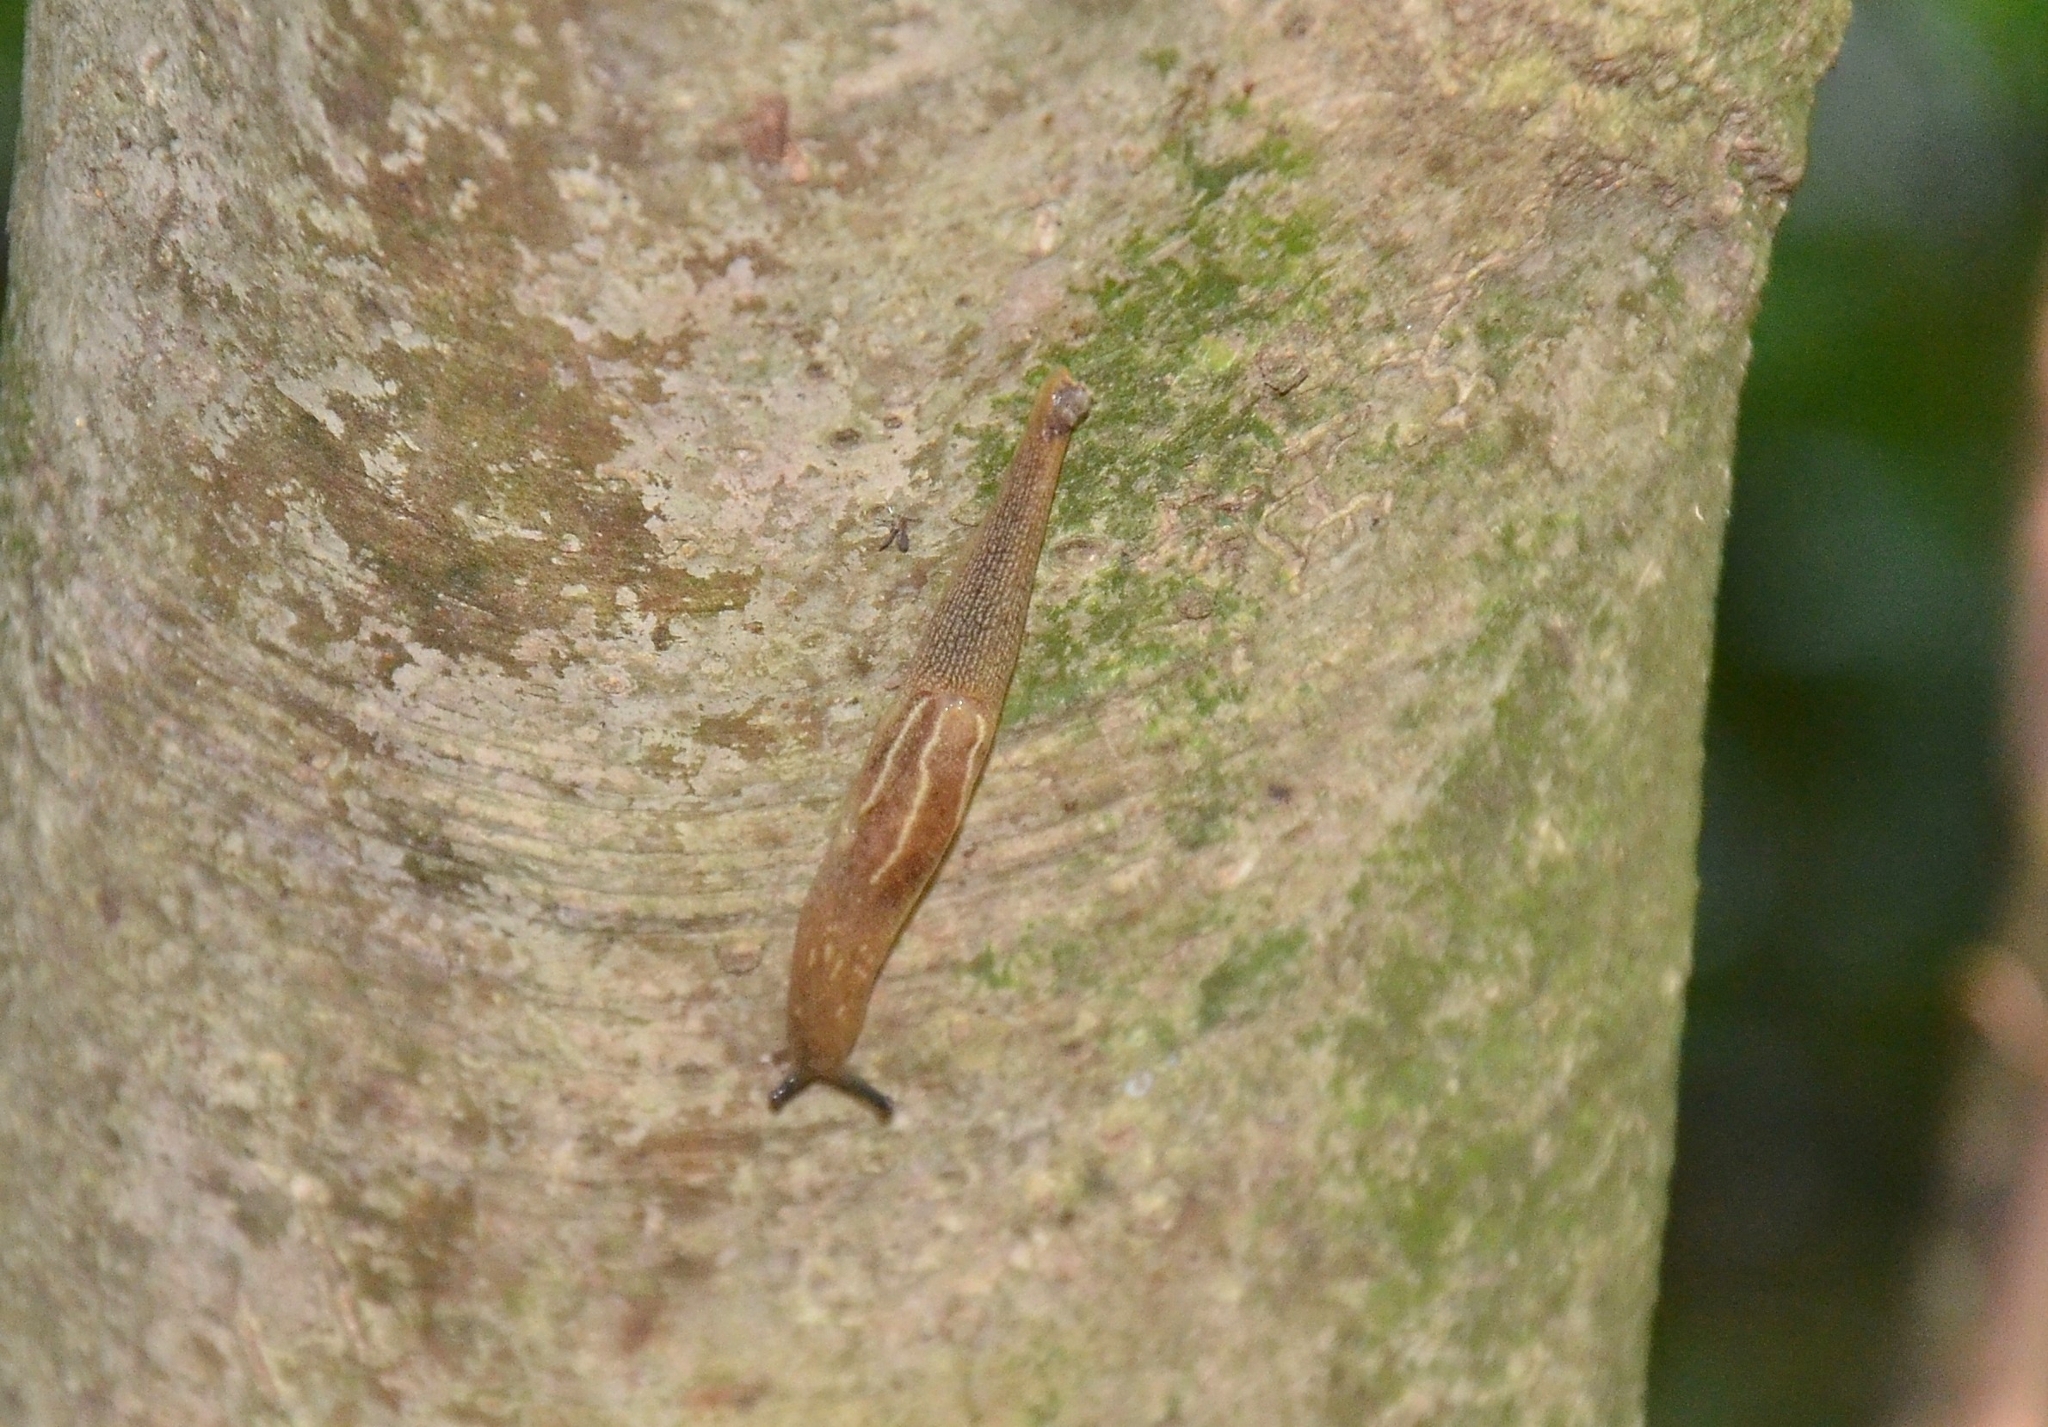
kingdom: Animalia
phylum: Mollusca
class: Gastropoda
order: Stylommatophora
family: Ariophantidae
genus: Mariaella
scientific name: Mariaella dussumieri
